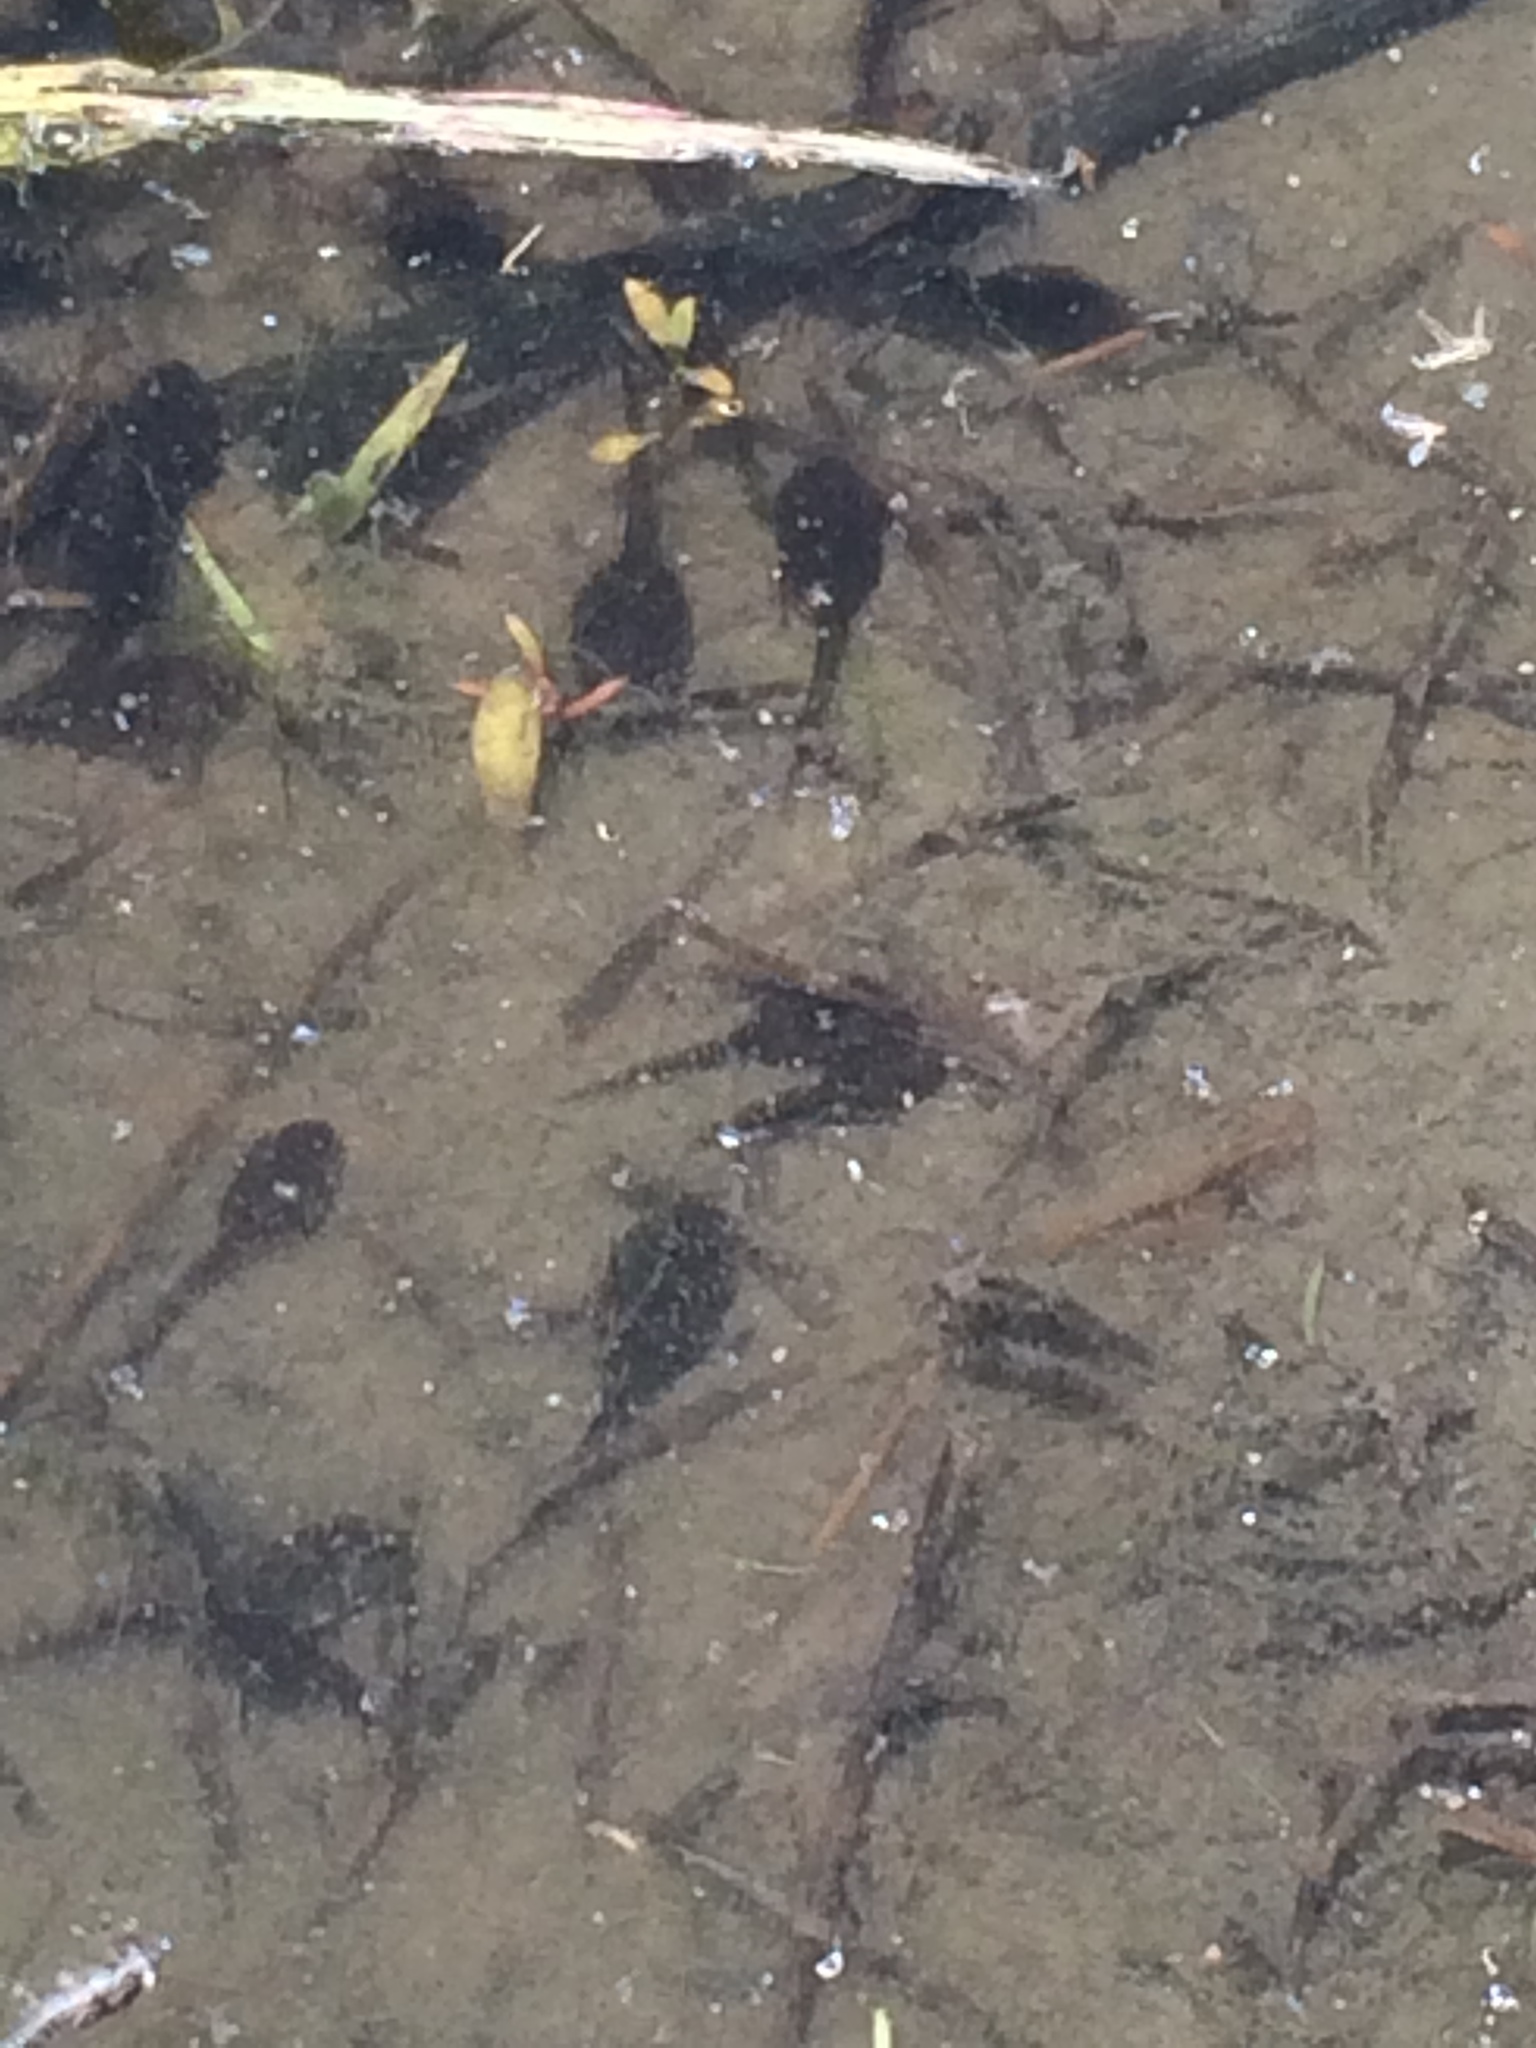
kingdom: Animalia
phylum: Chordata
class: Amphibia
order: Anura
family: Bufonidae
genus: Anaxyrus
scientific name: Anaxyrus boreas
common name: Western toad
